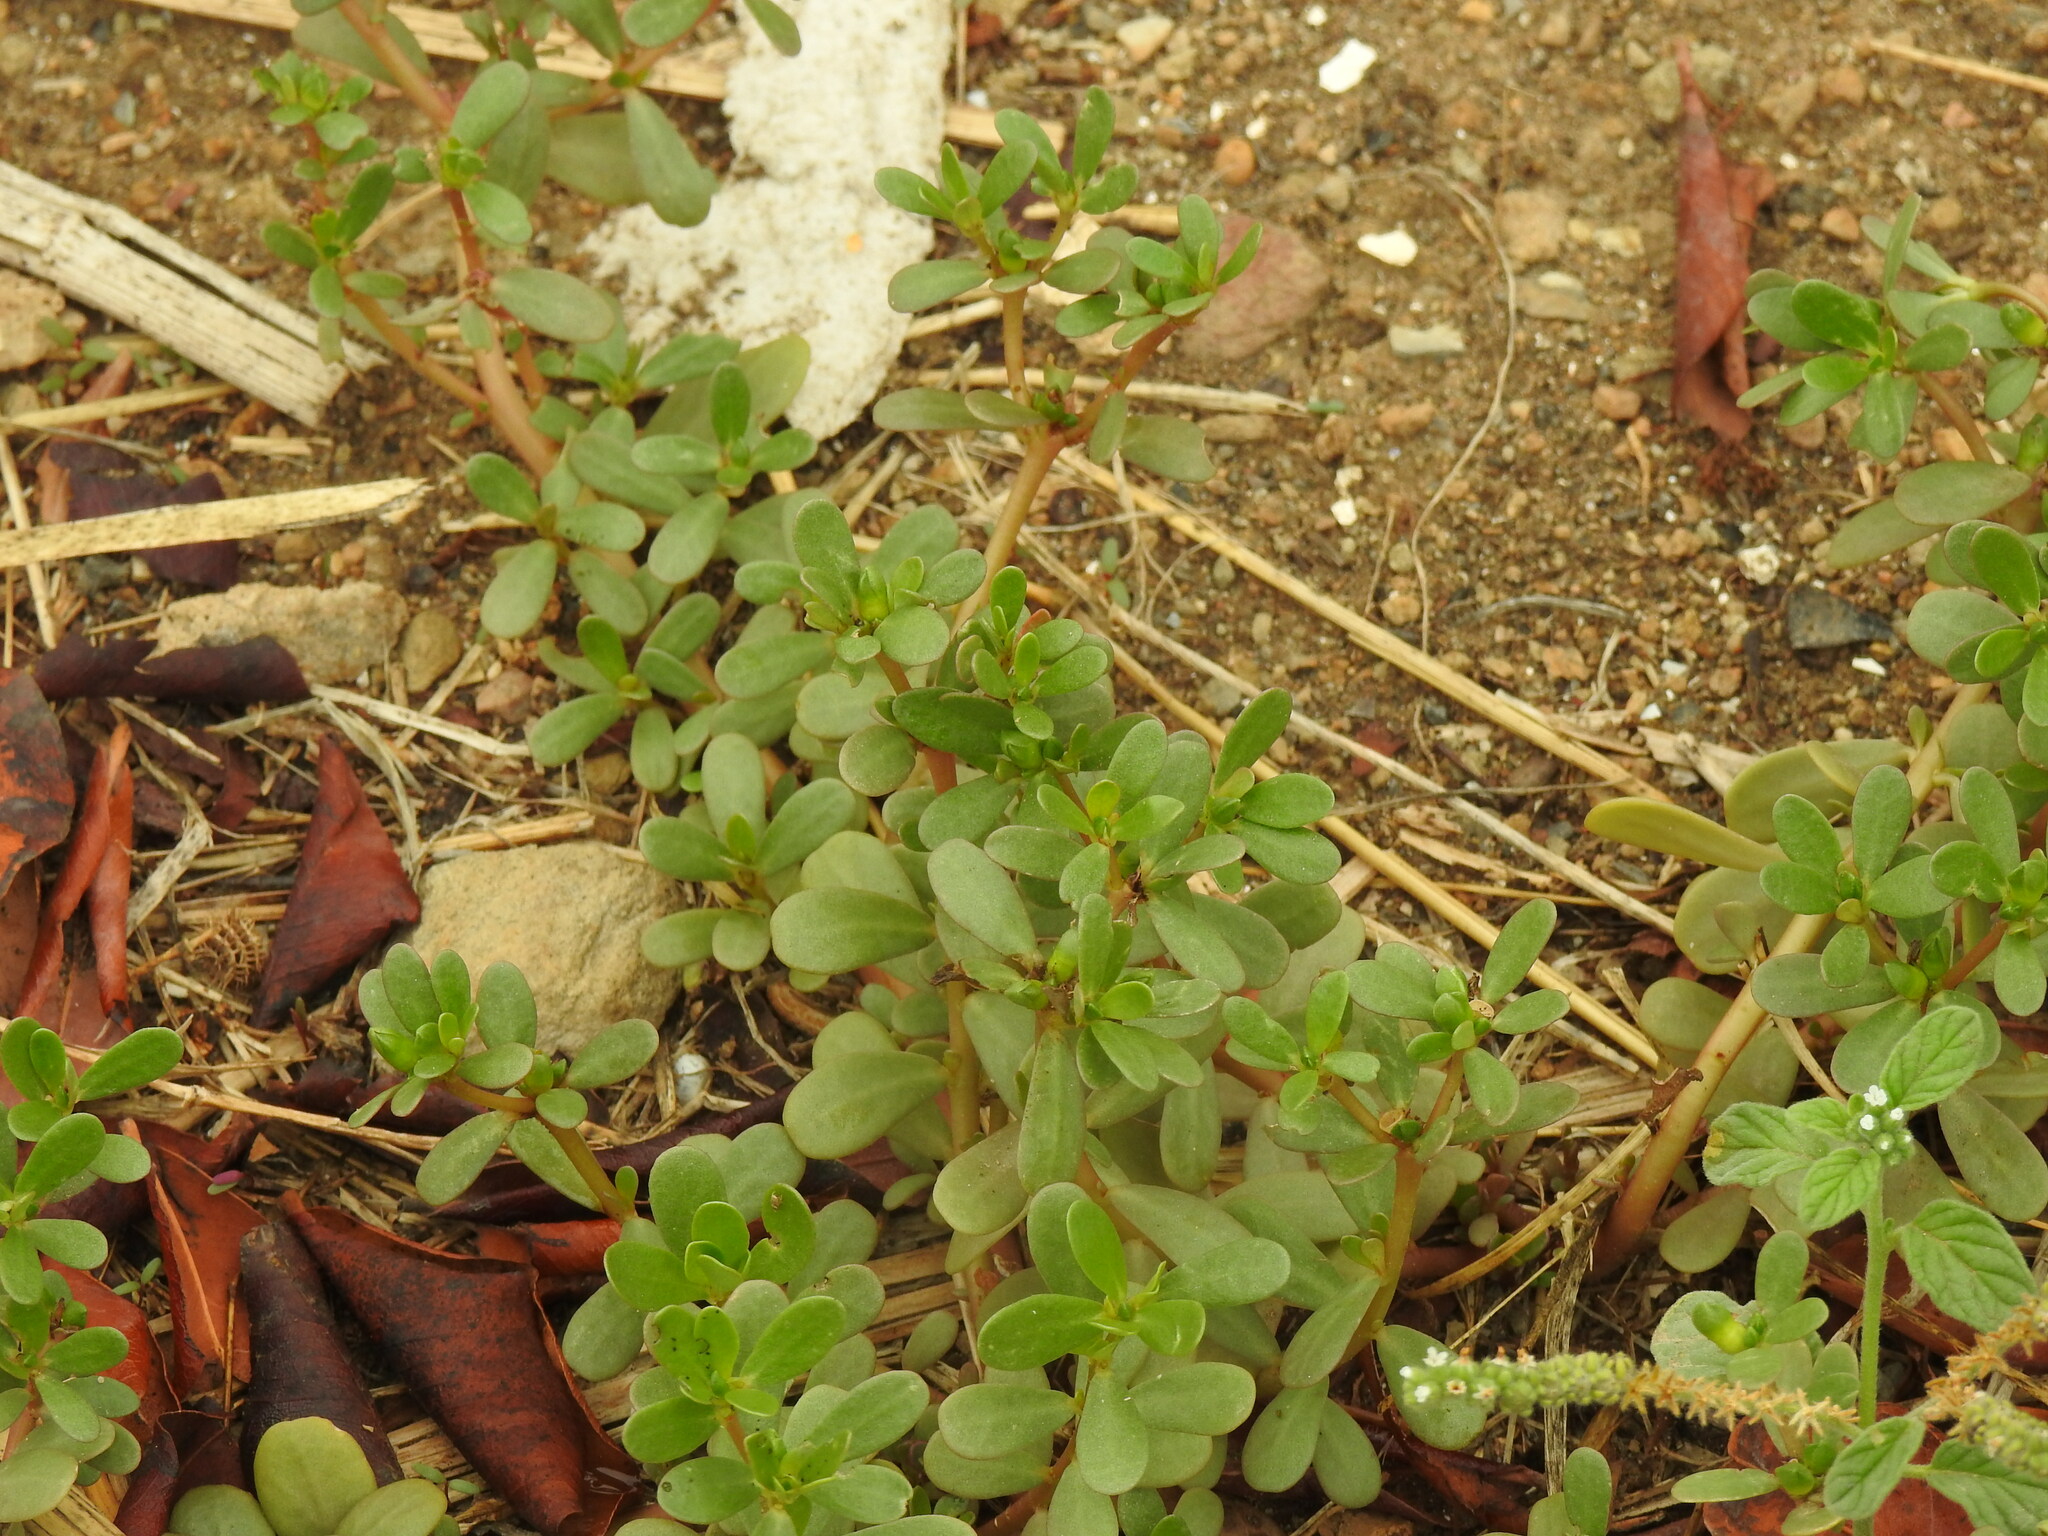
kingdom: Plantae
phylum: Tracheophyta
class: Magnoliopsida
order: Caryophyllales
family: Portulacaceae
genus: Portulaca
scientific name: Portulaca oleracea
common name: Common purslane
